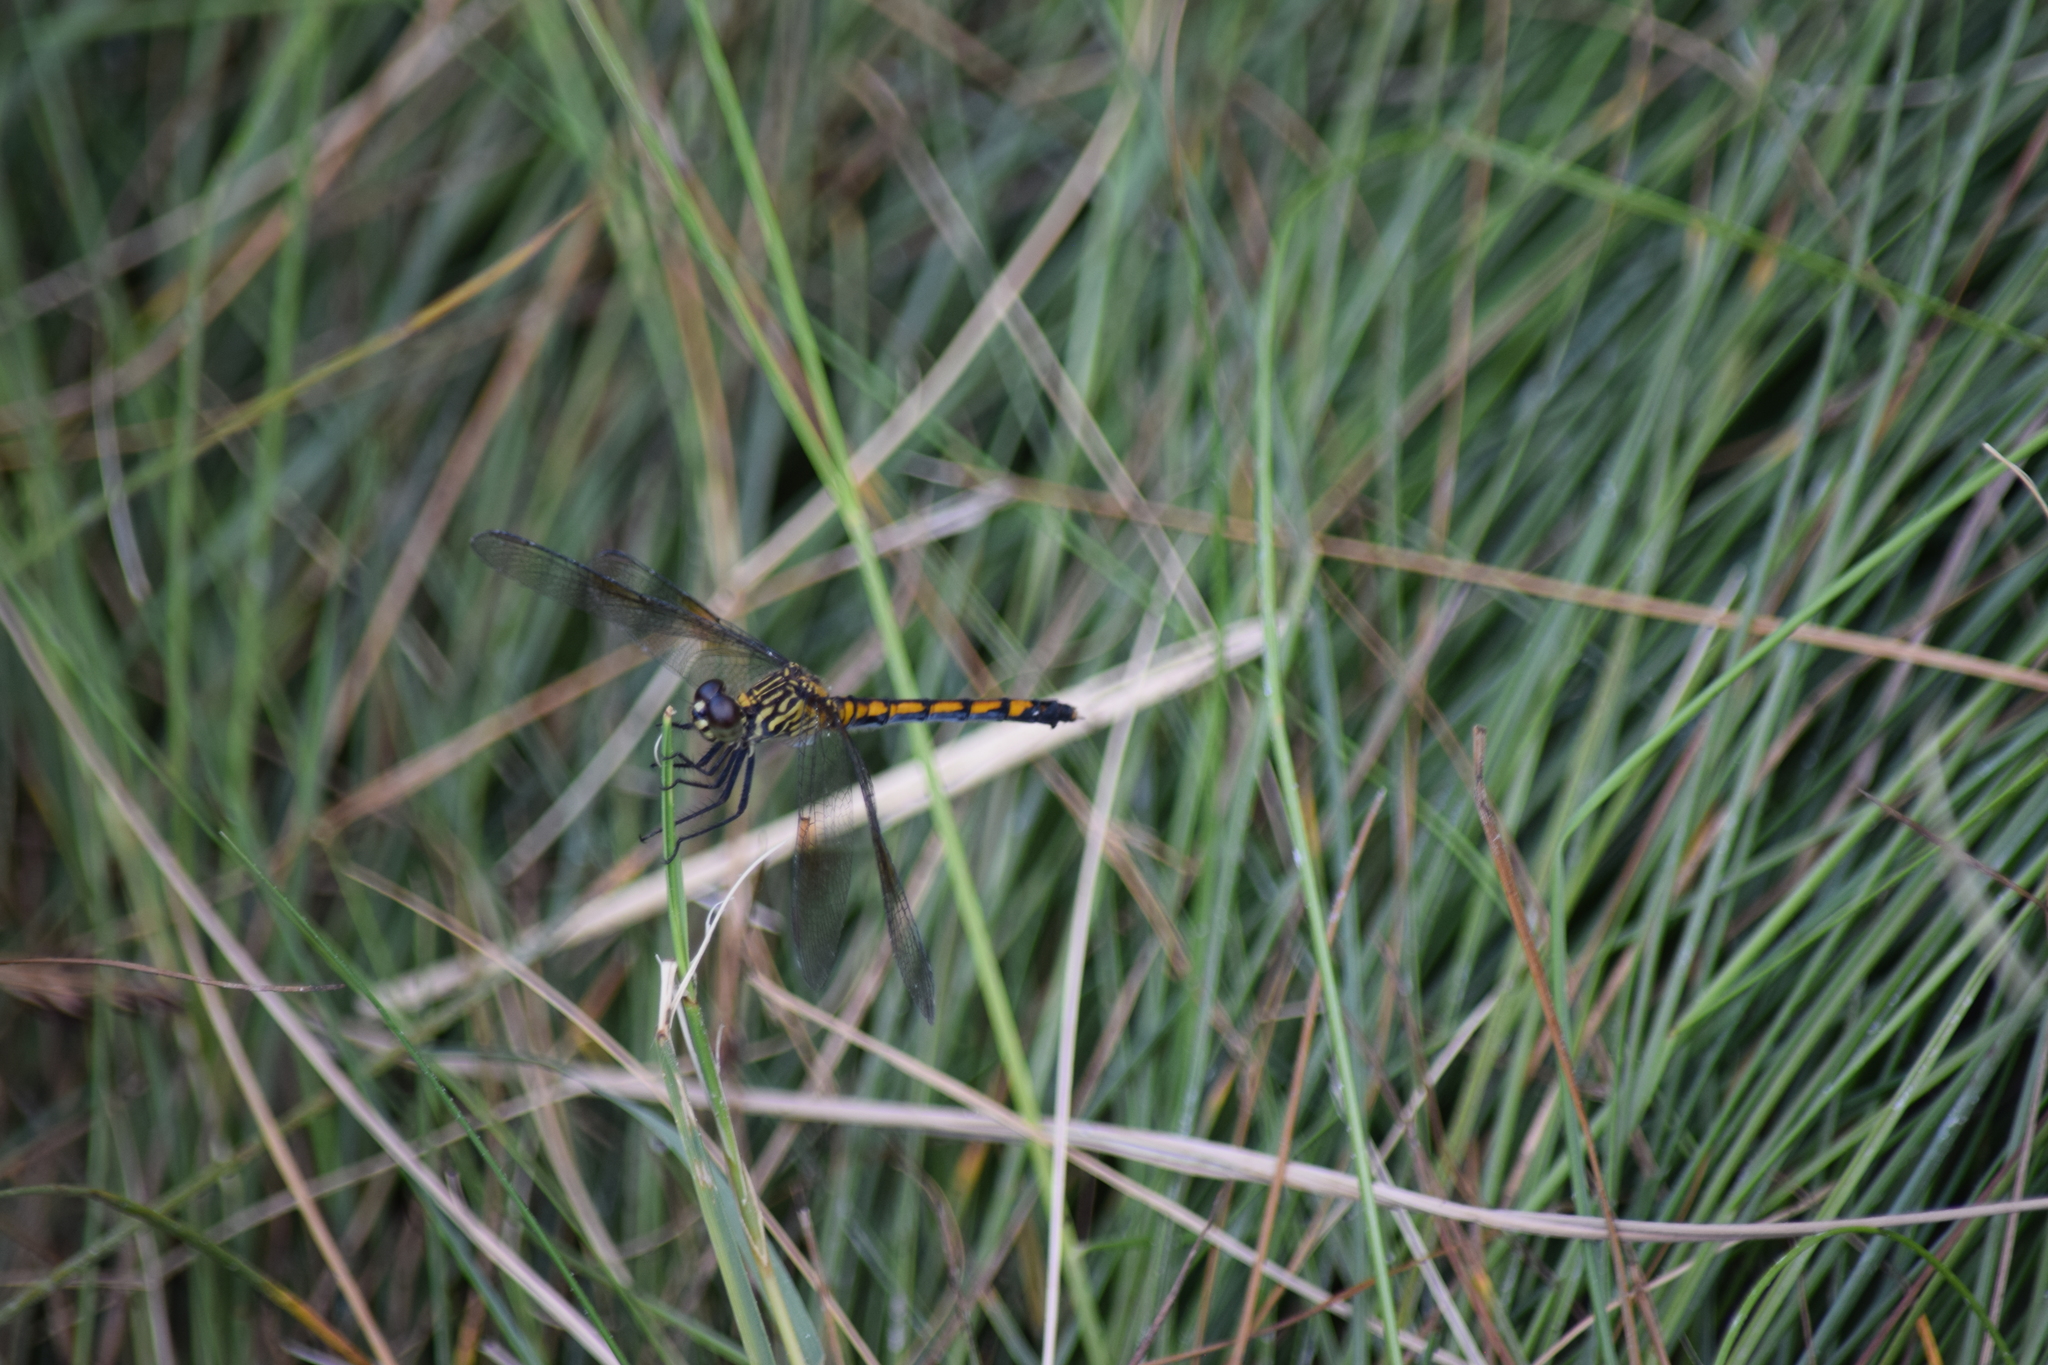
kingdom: Animalia
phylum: Arthropoda
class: Insecta
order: Odonata
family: Libellulidae
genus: Erythrodiplax
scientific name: Erythrodiplax berenice
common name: Seaside dragonlet
